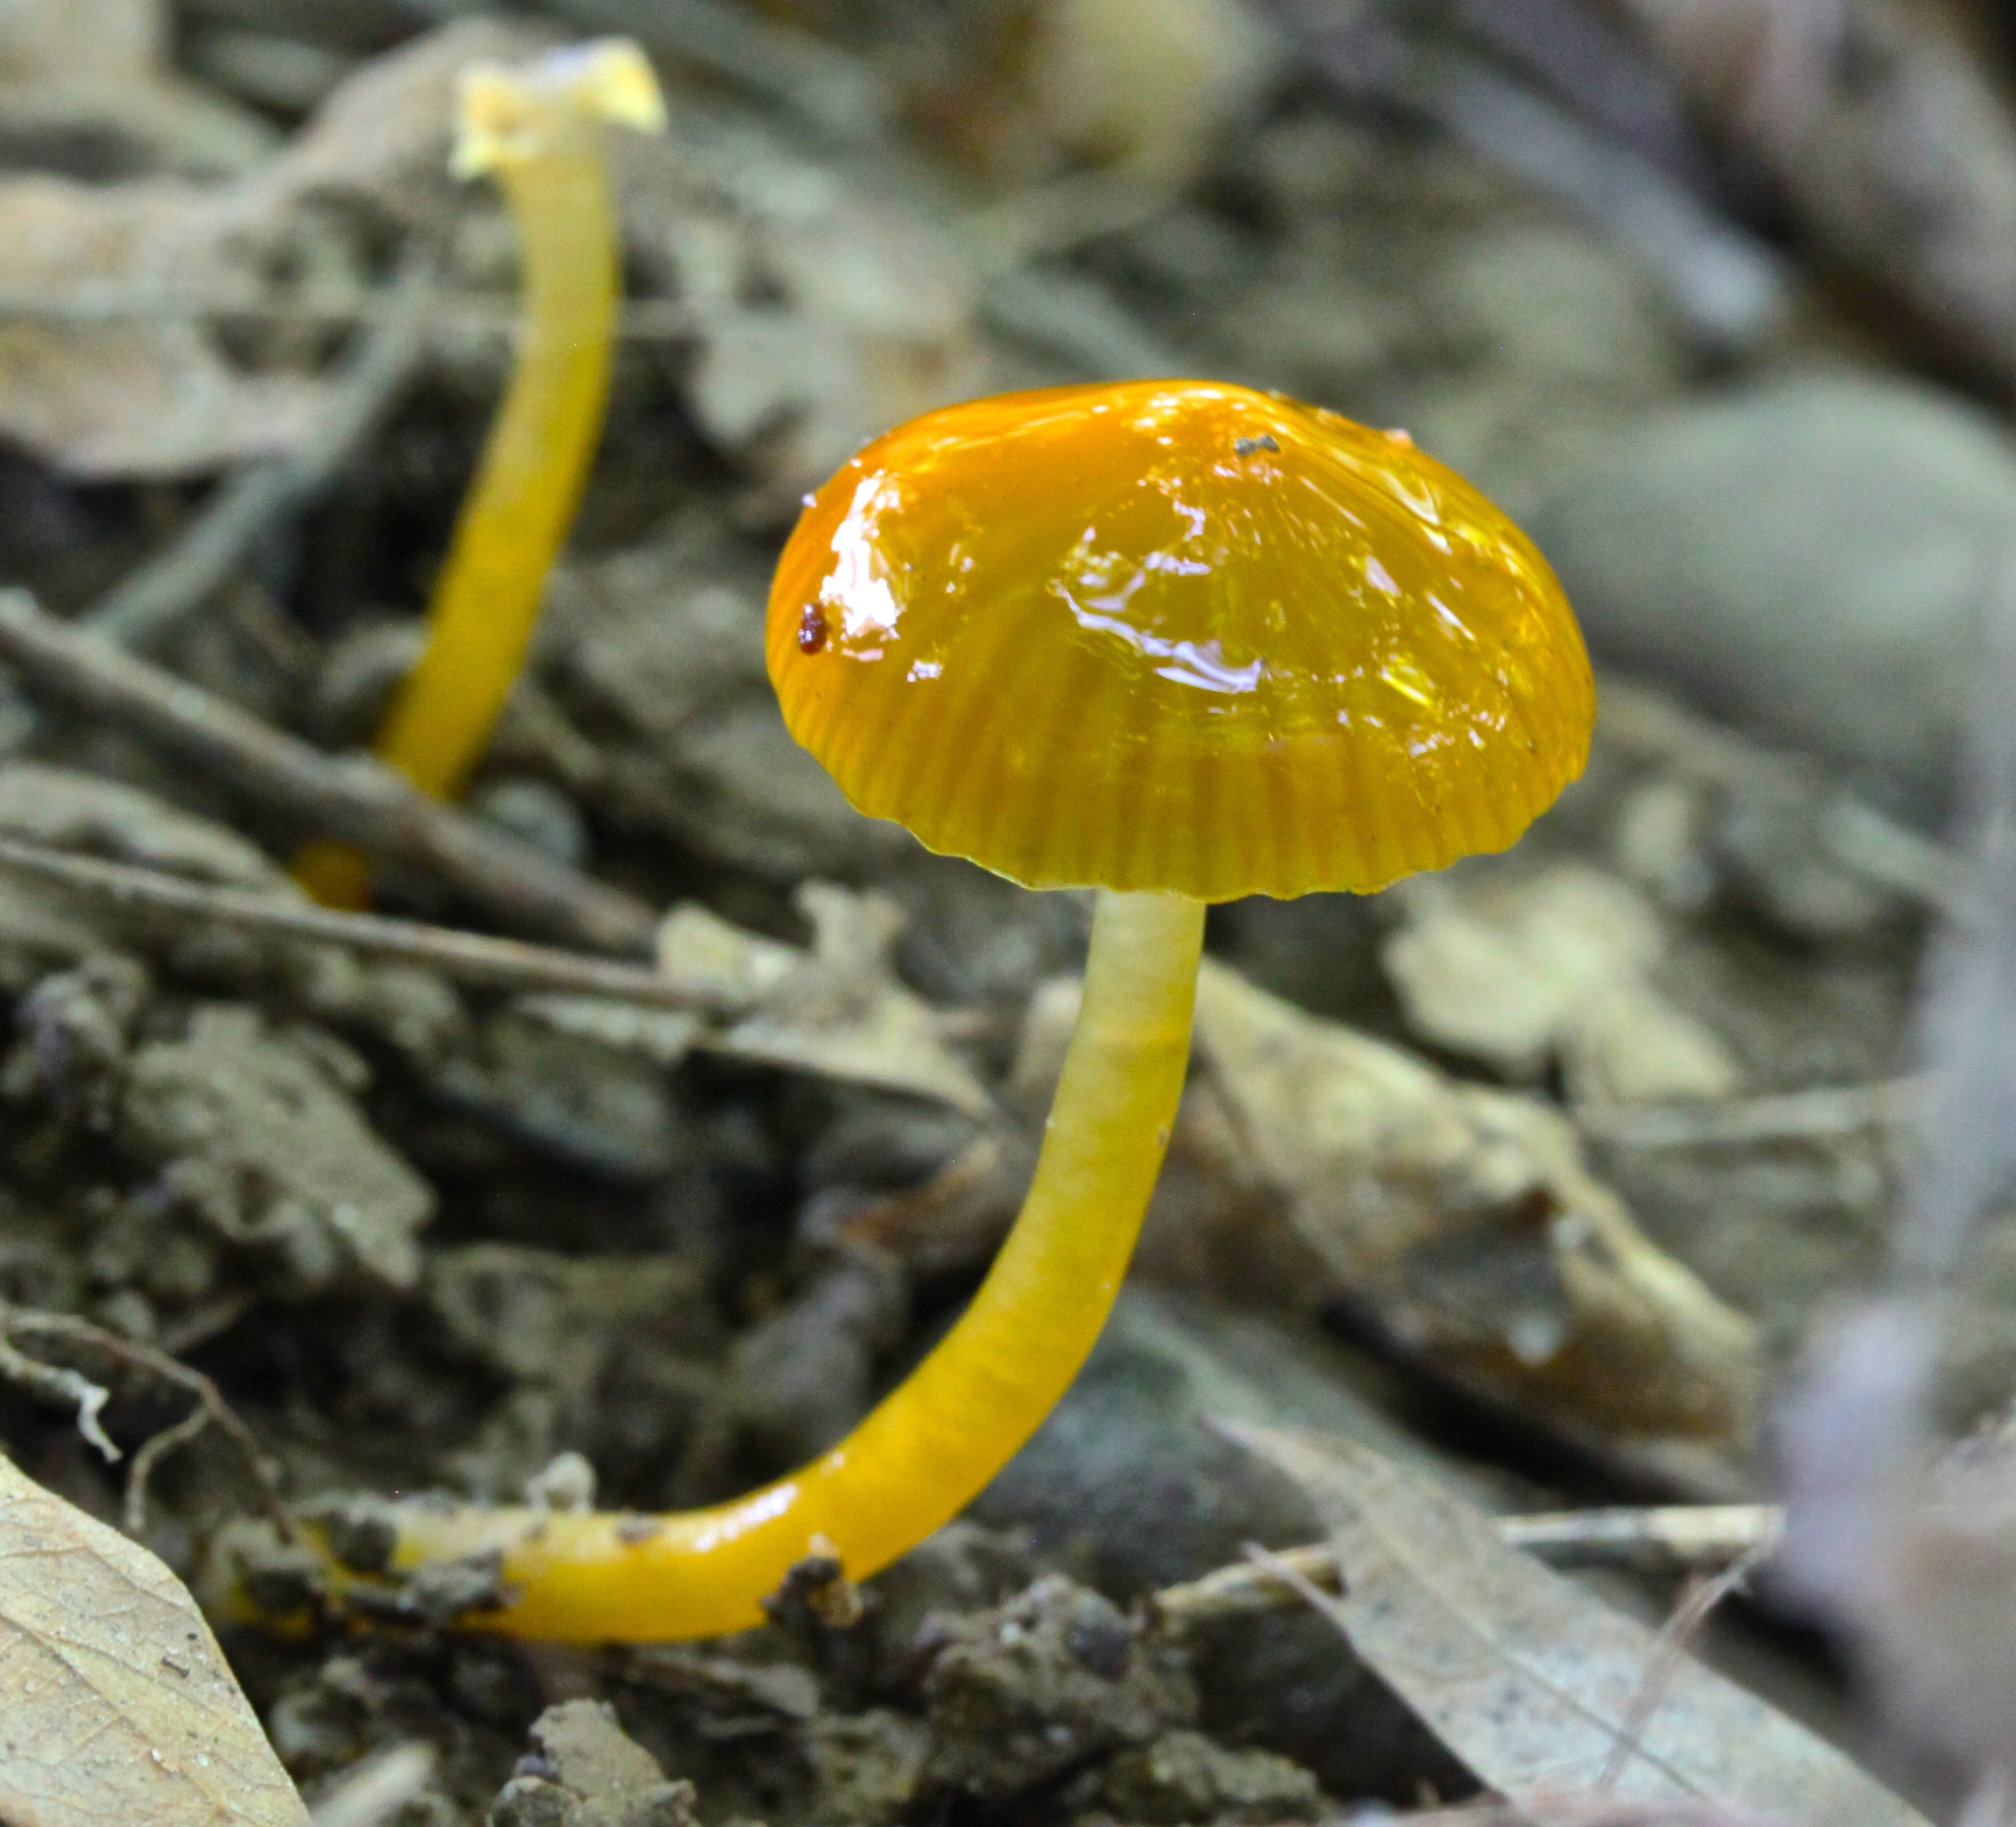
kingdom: Fungi
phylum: Basidiomycota
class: Agaricomycetes
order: Agaricales
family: Hygrophoraceae
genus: Gliophorus
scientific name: Gliophorus psittacinus
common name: Parrot wax-cap
